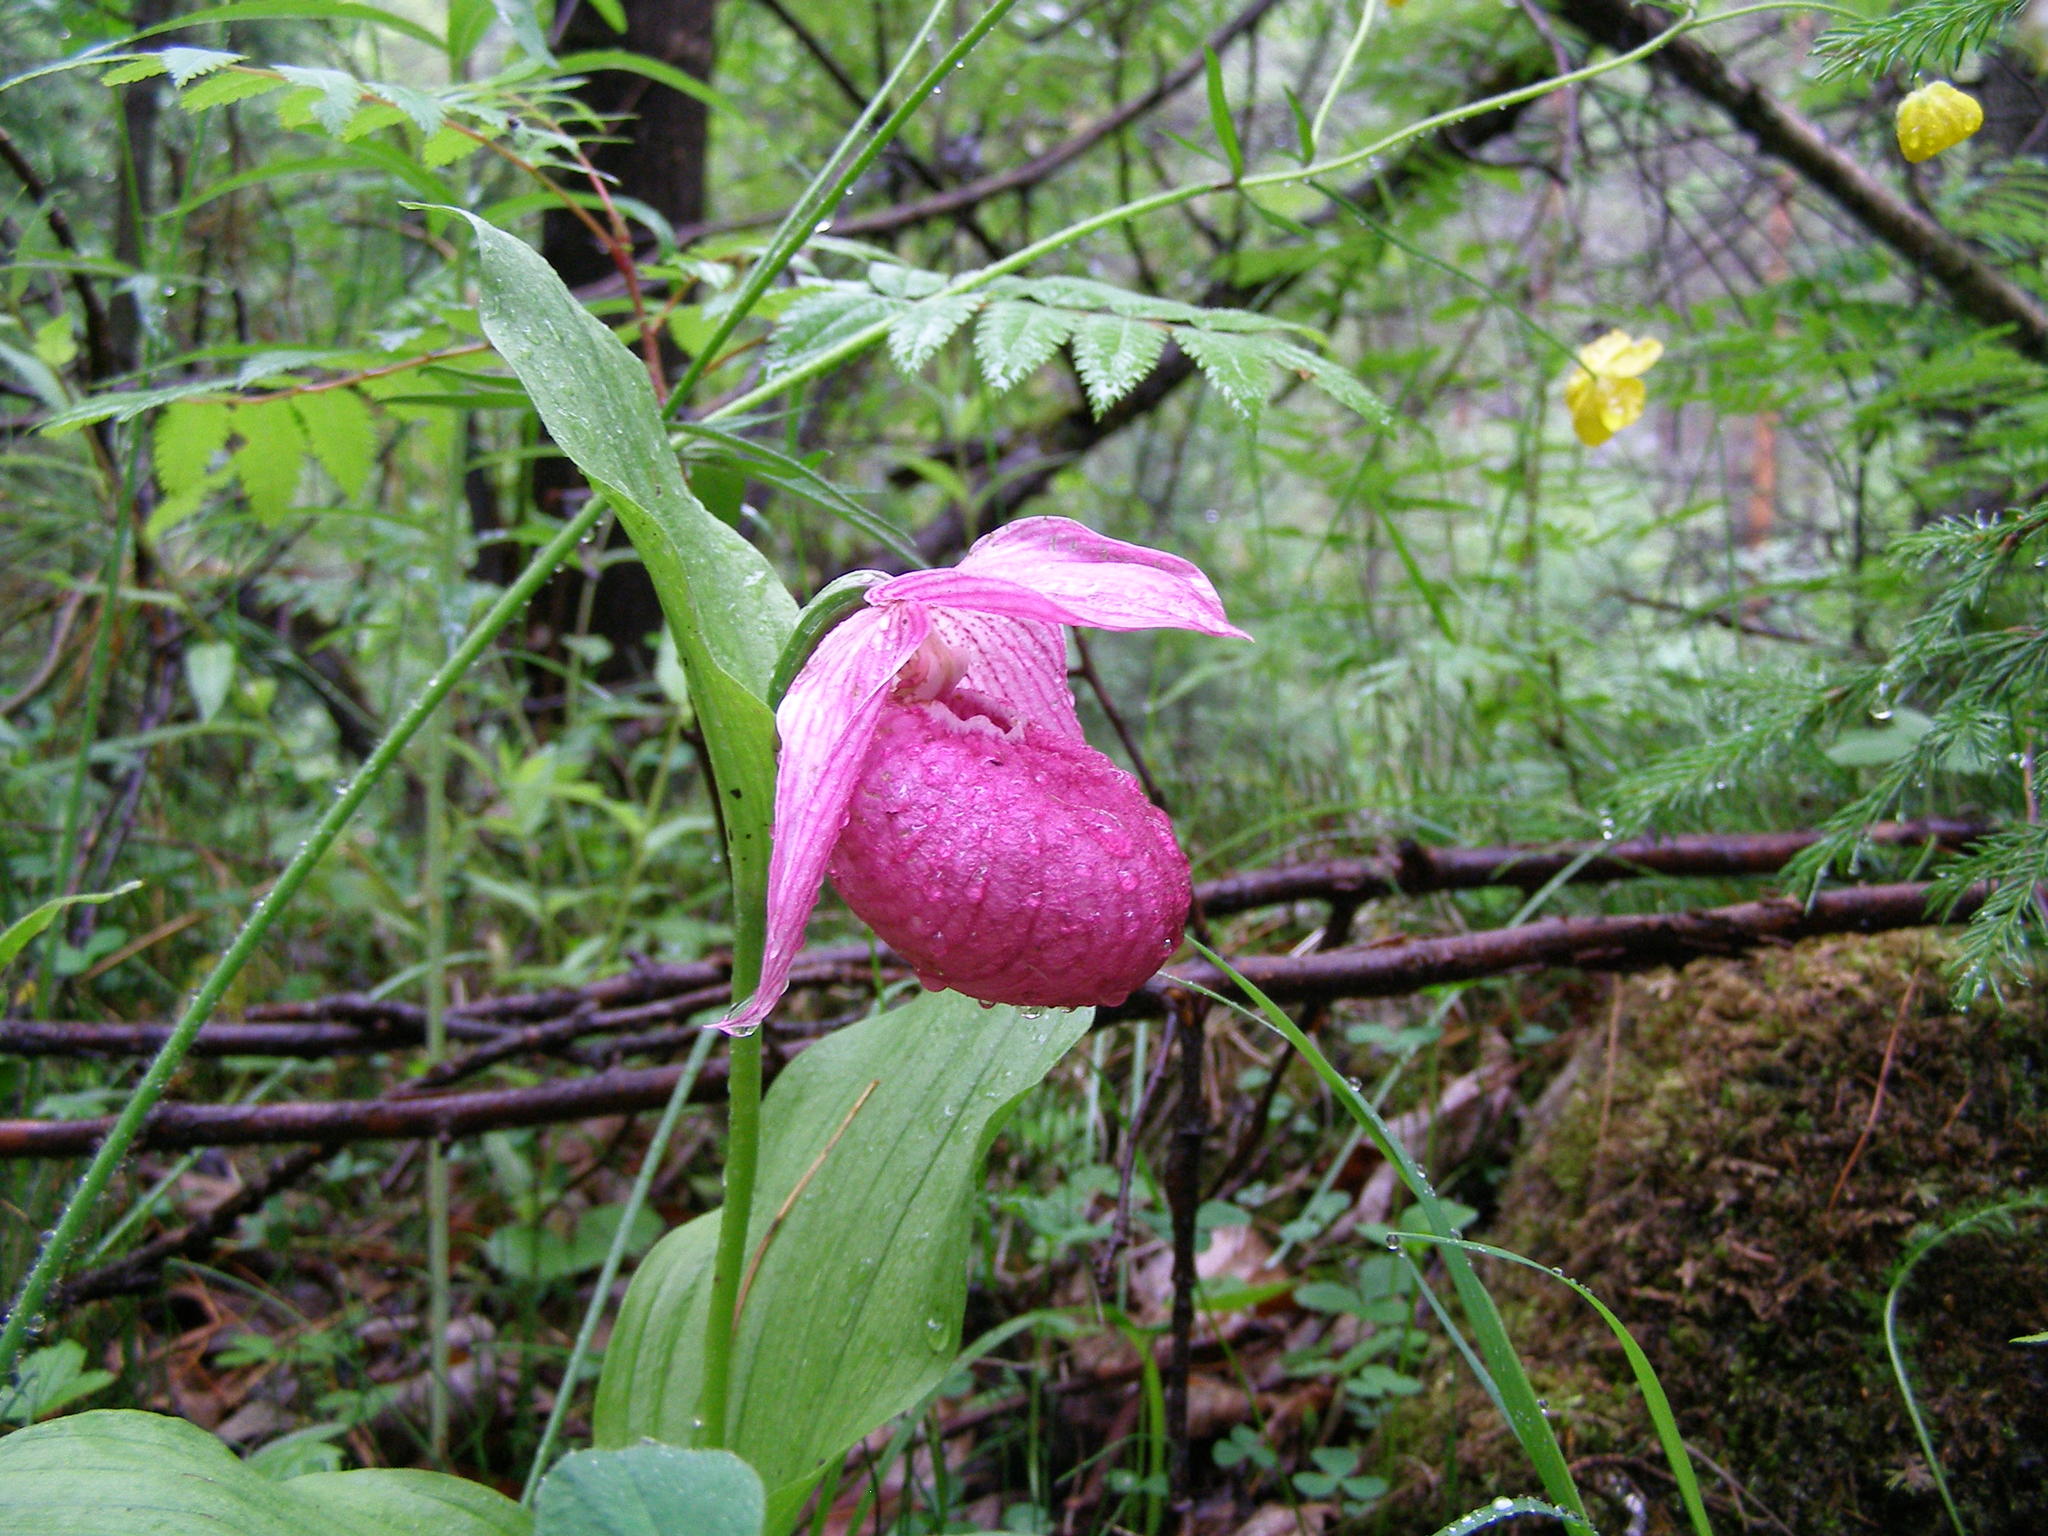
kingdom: Plantae
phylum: Tracheophyta
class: Liliopsida
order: Asparagales
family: Orchidaceae
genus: Cypripedium
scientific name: Cypripedium macranthos
